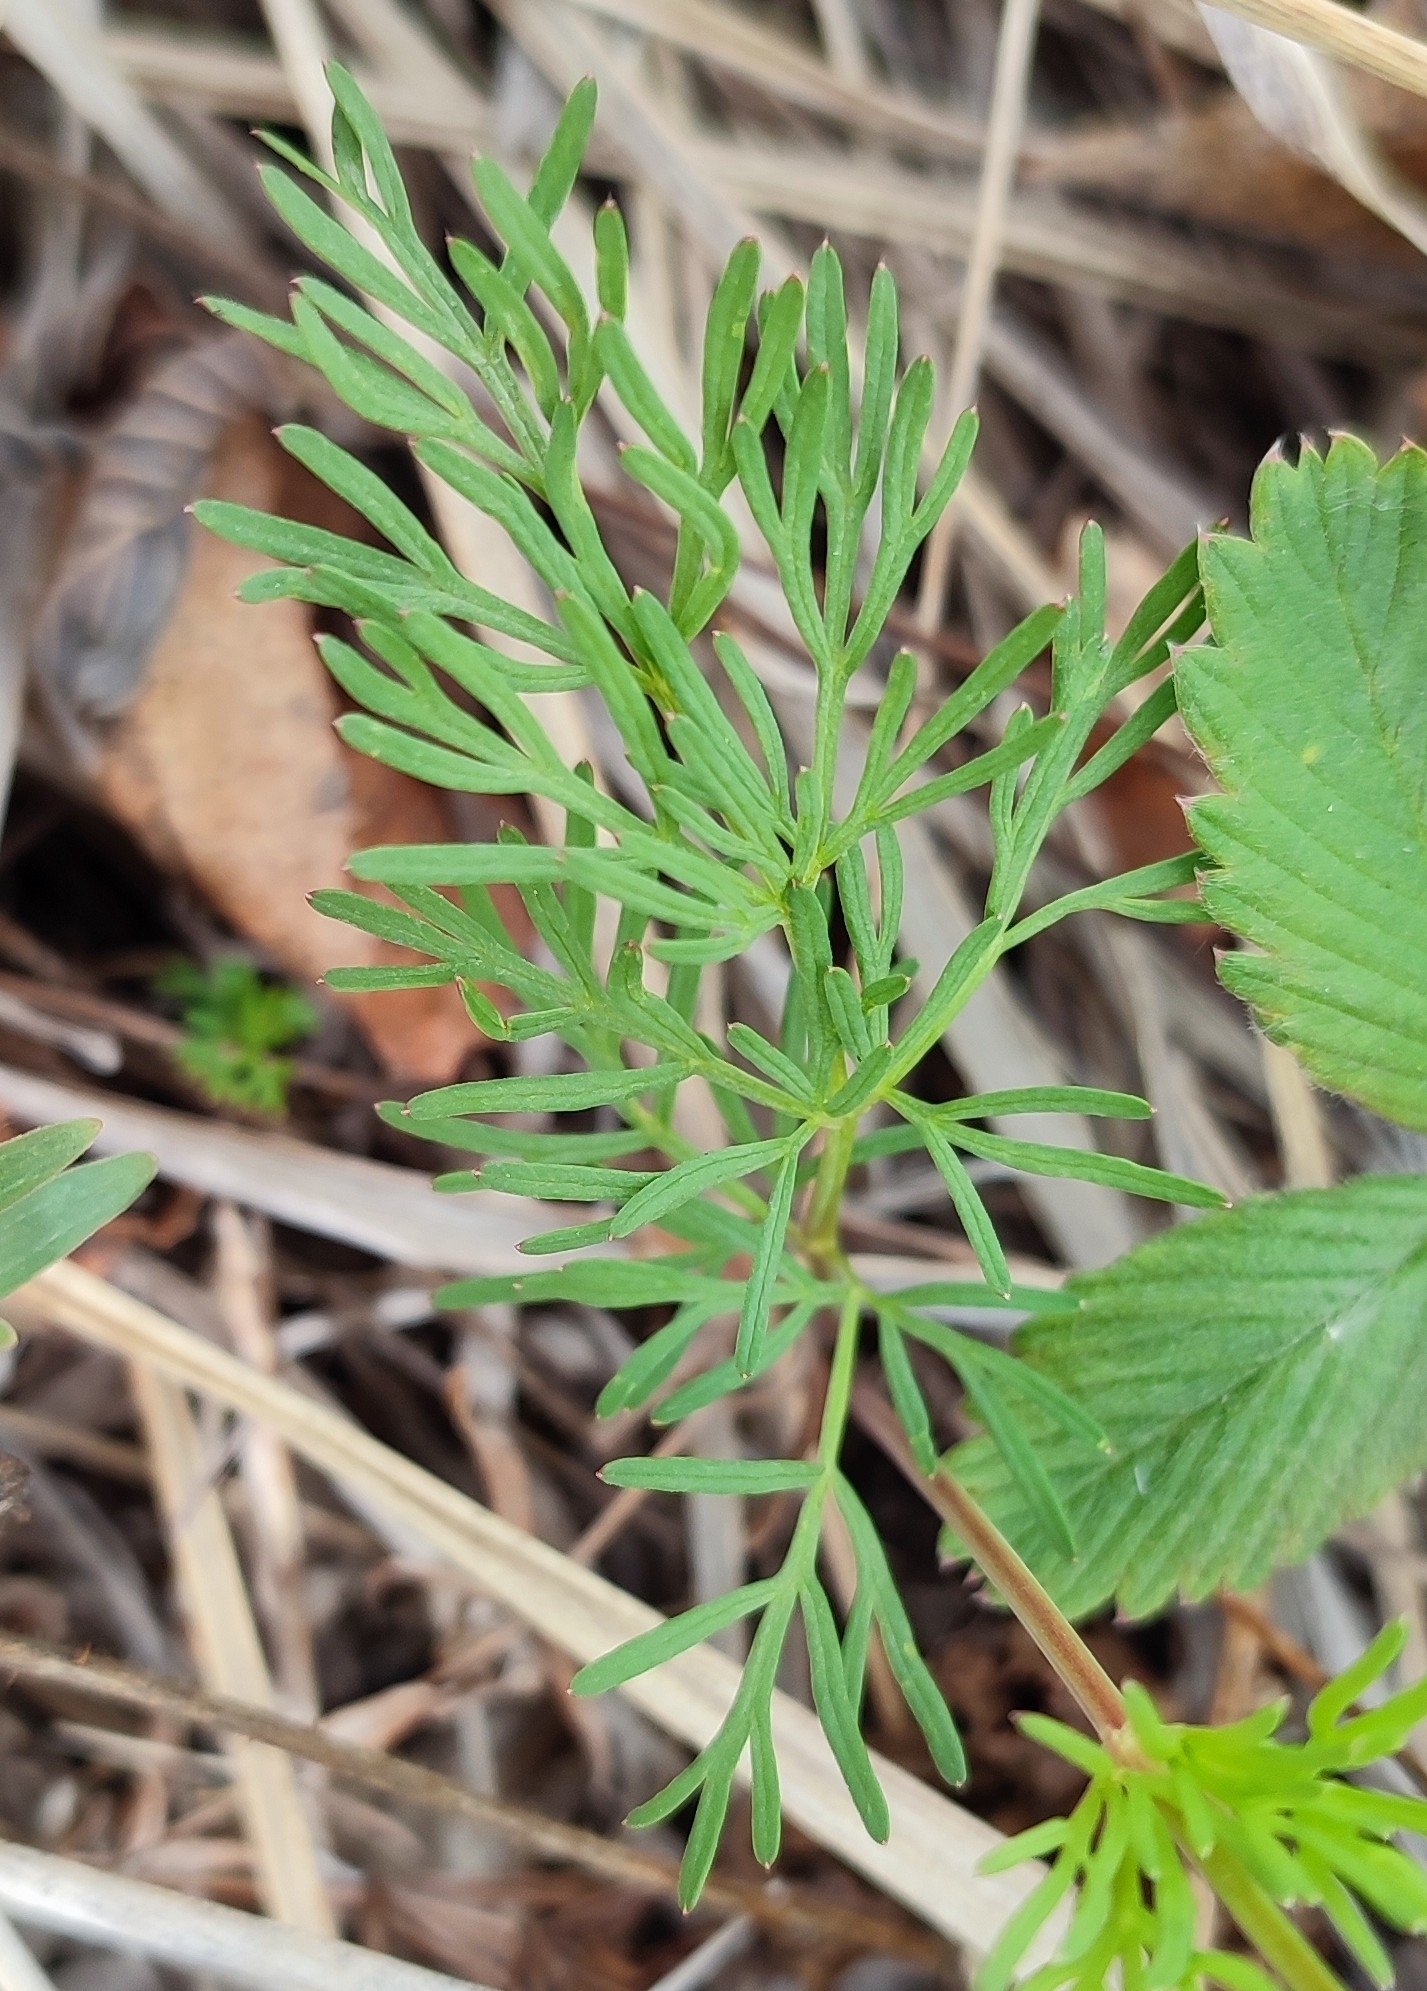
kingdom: Plantae
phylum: Tracheophyta
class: Magnoliopsida
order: Apiales
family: Apiaceae
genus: Kadenia
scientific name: Kadenia dubia
